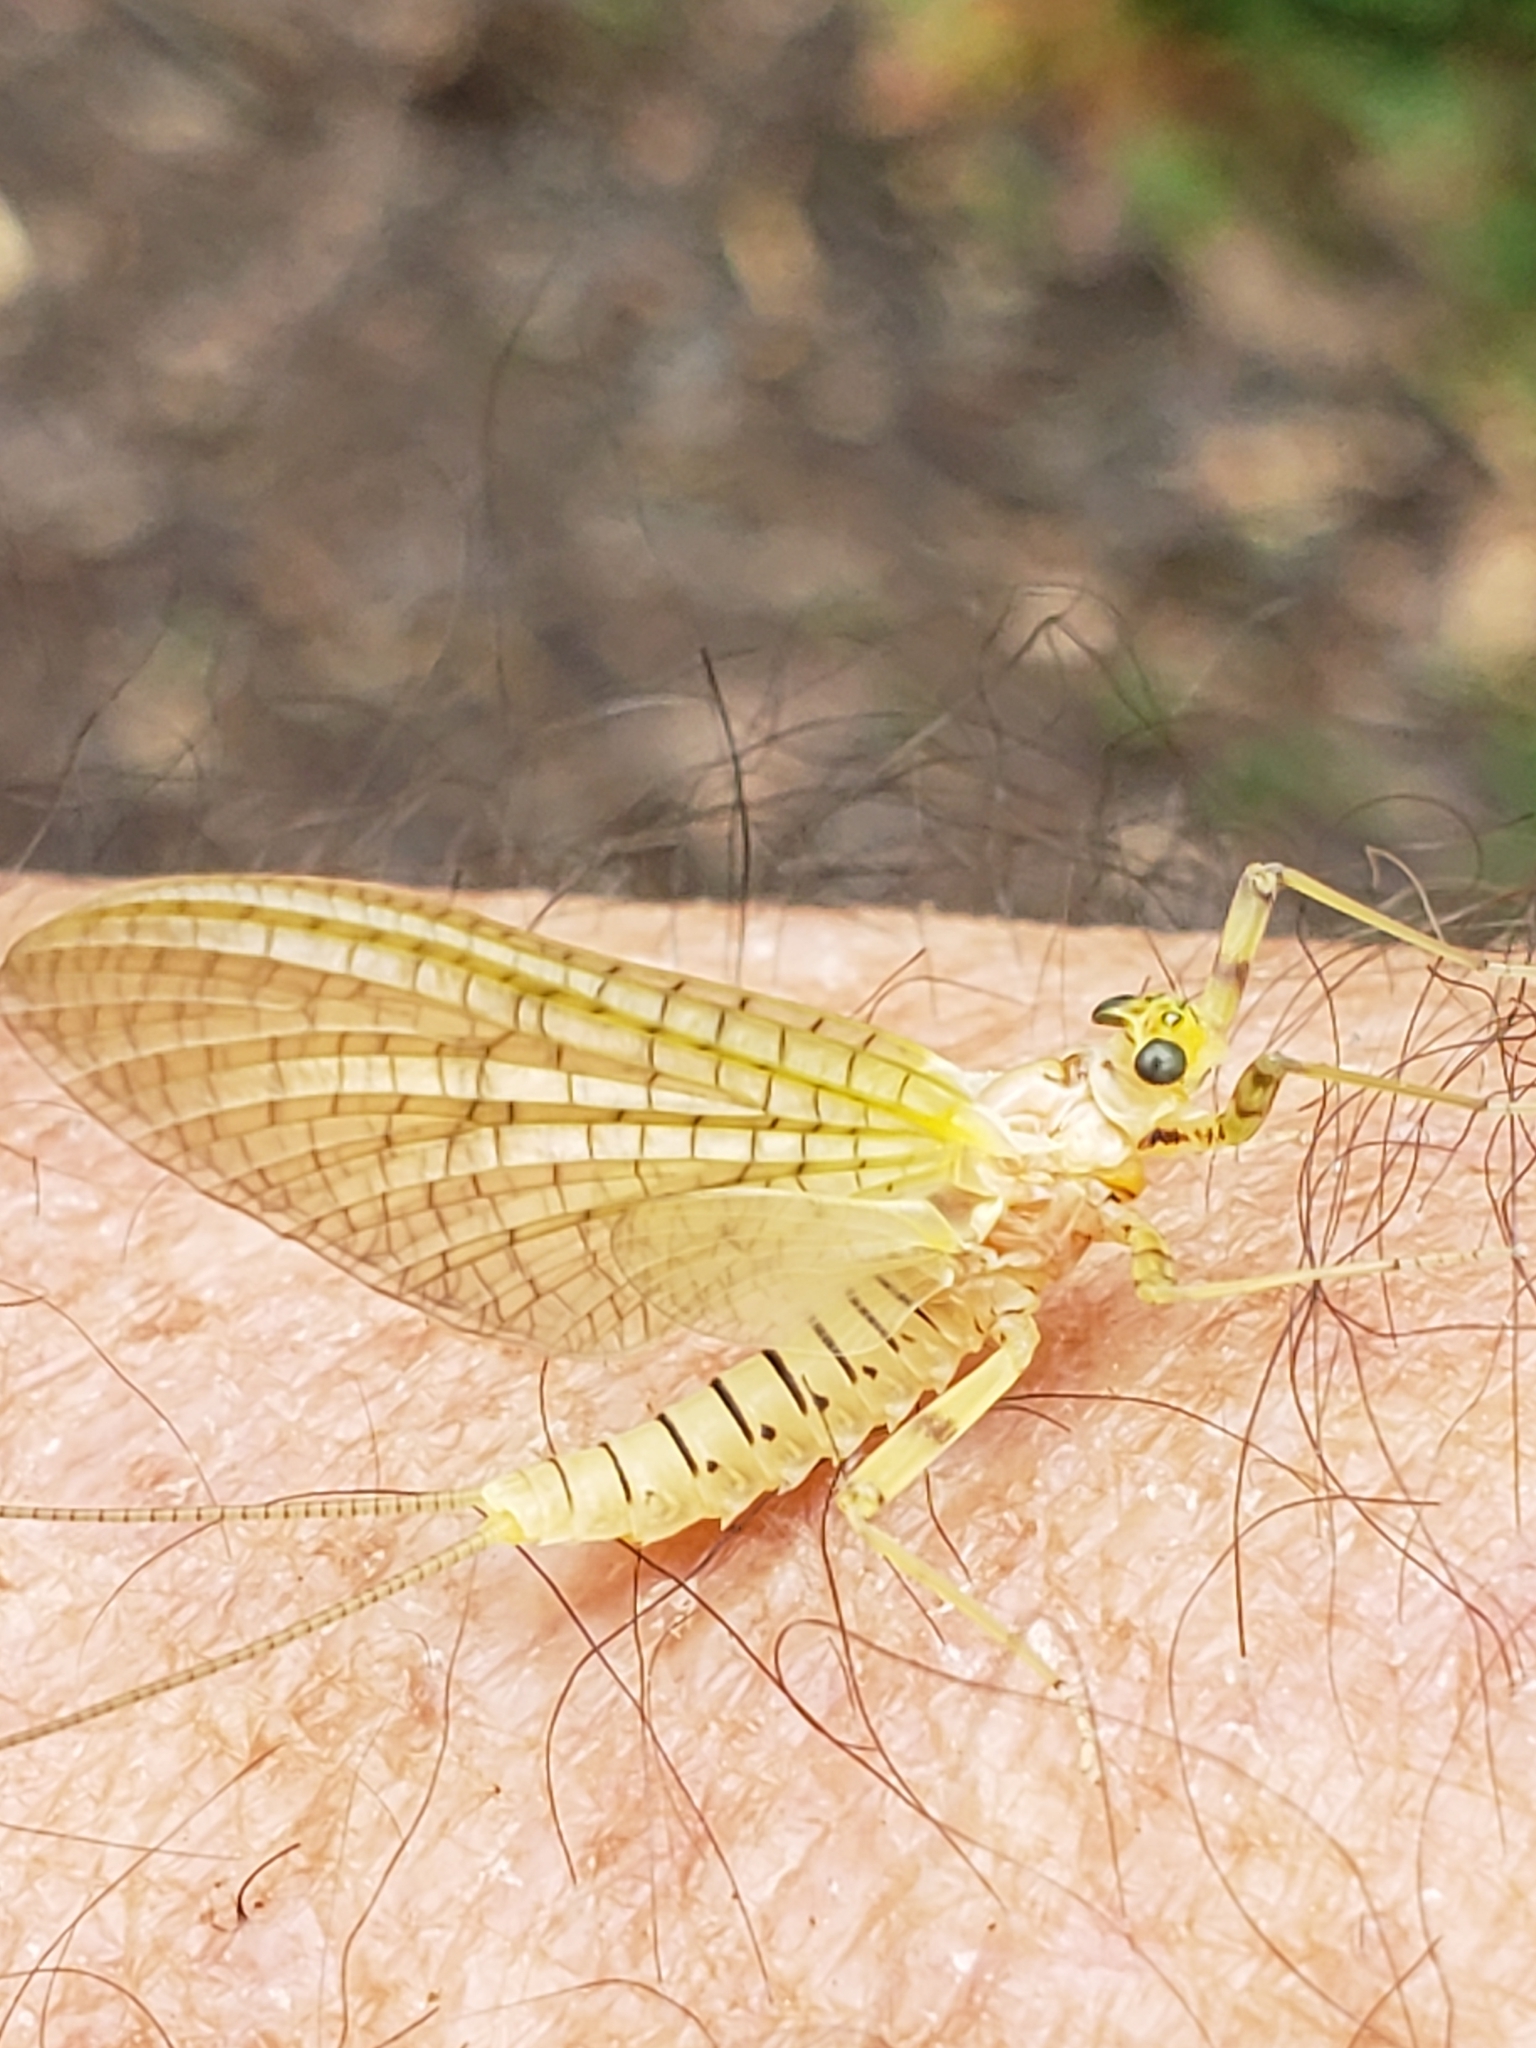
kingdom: Animalia
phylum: Arthropoda
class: Insecta
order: Ephemeroptera
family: Heptageniidae
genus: Maccaffertium
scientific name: Maccaffertium mediopunctatum
